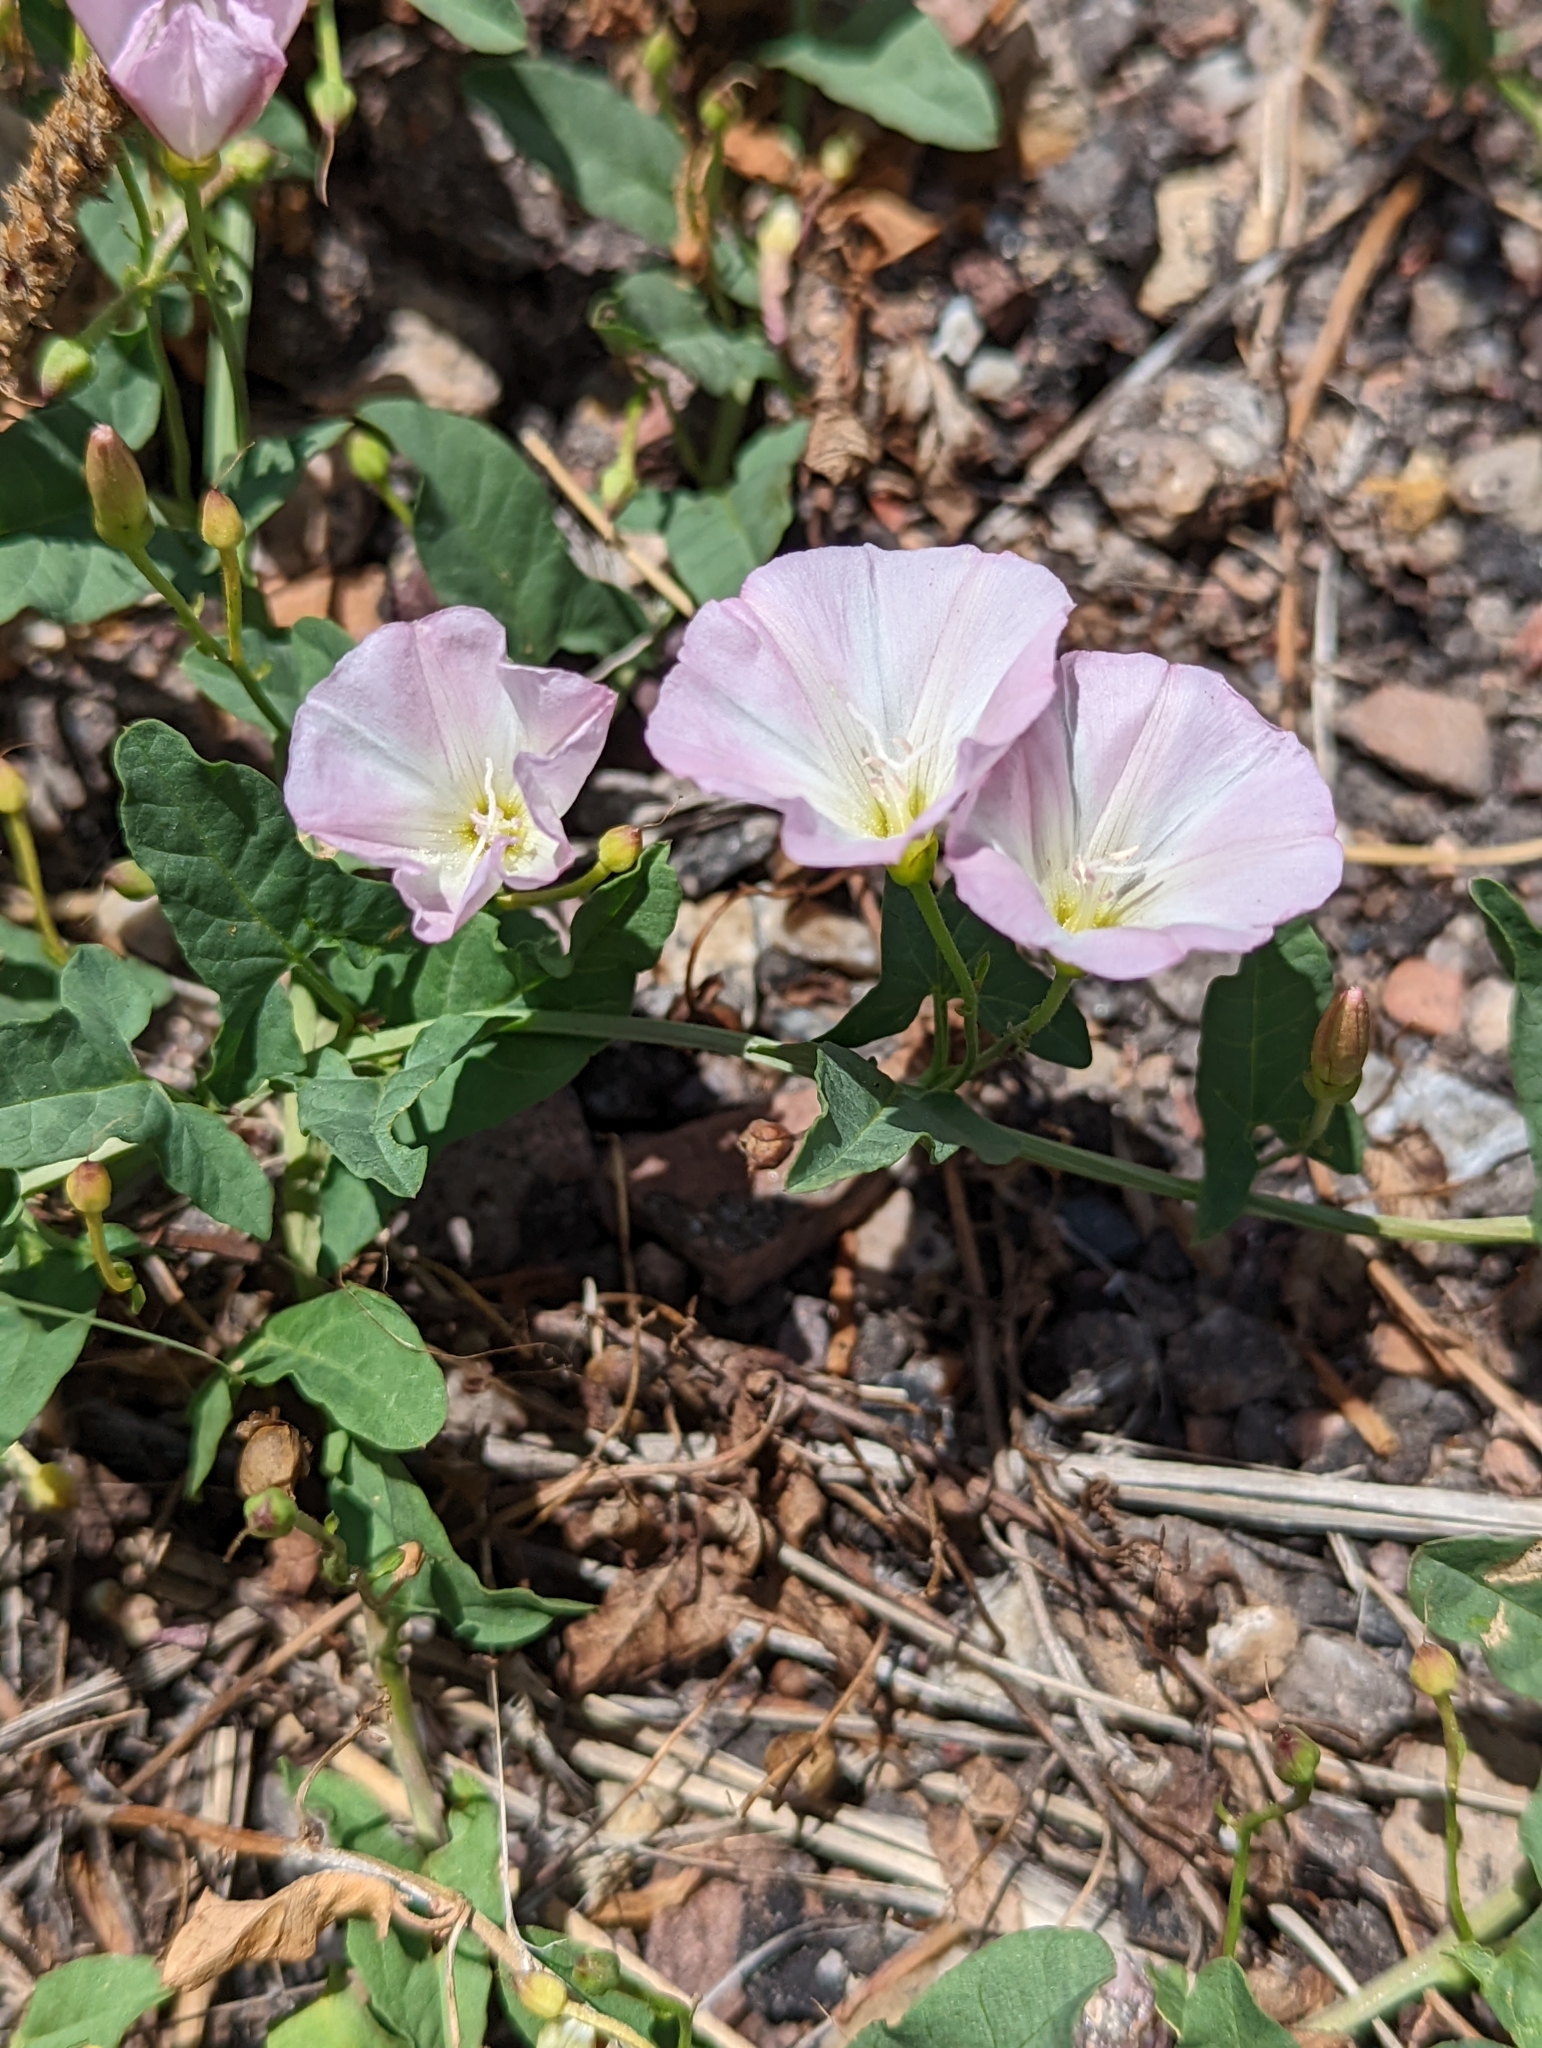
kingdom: Plantae
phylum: Tracheophyta
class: Magnoliopsida
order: Solanales
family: Convolvulaceae
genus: Convolvulus
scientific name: Convolvulus arvensis
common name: Field bindweed
